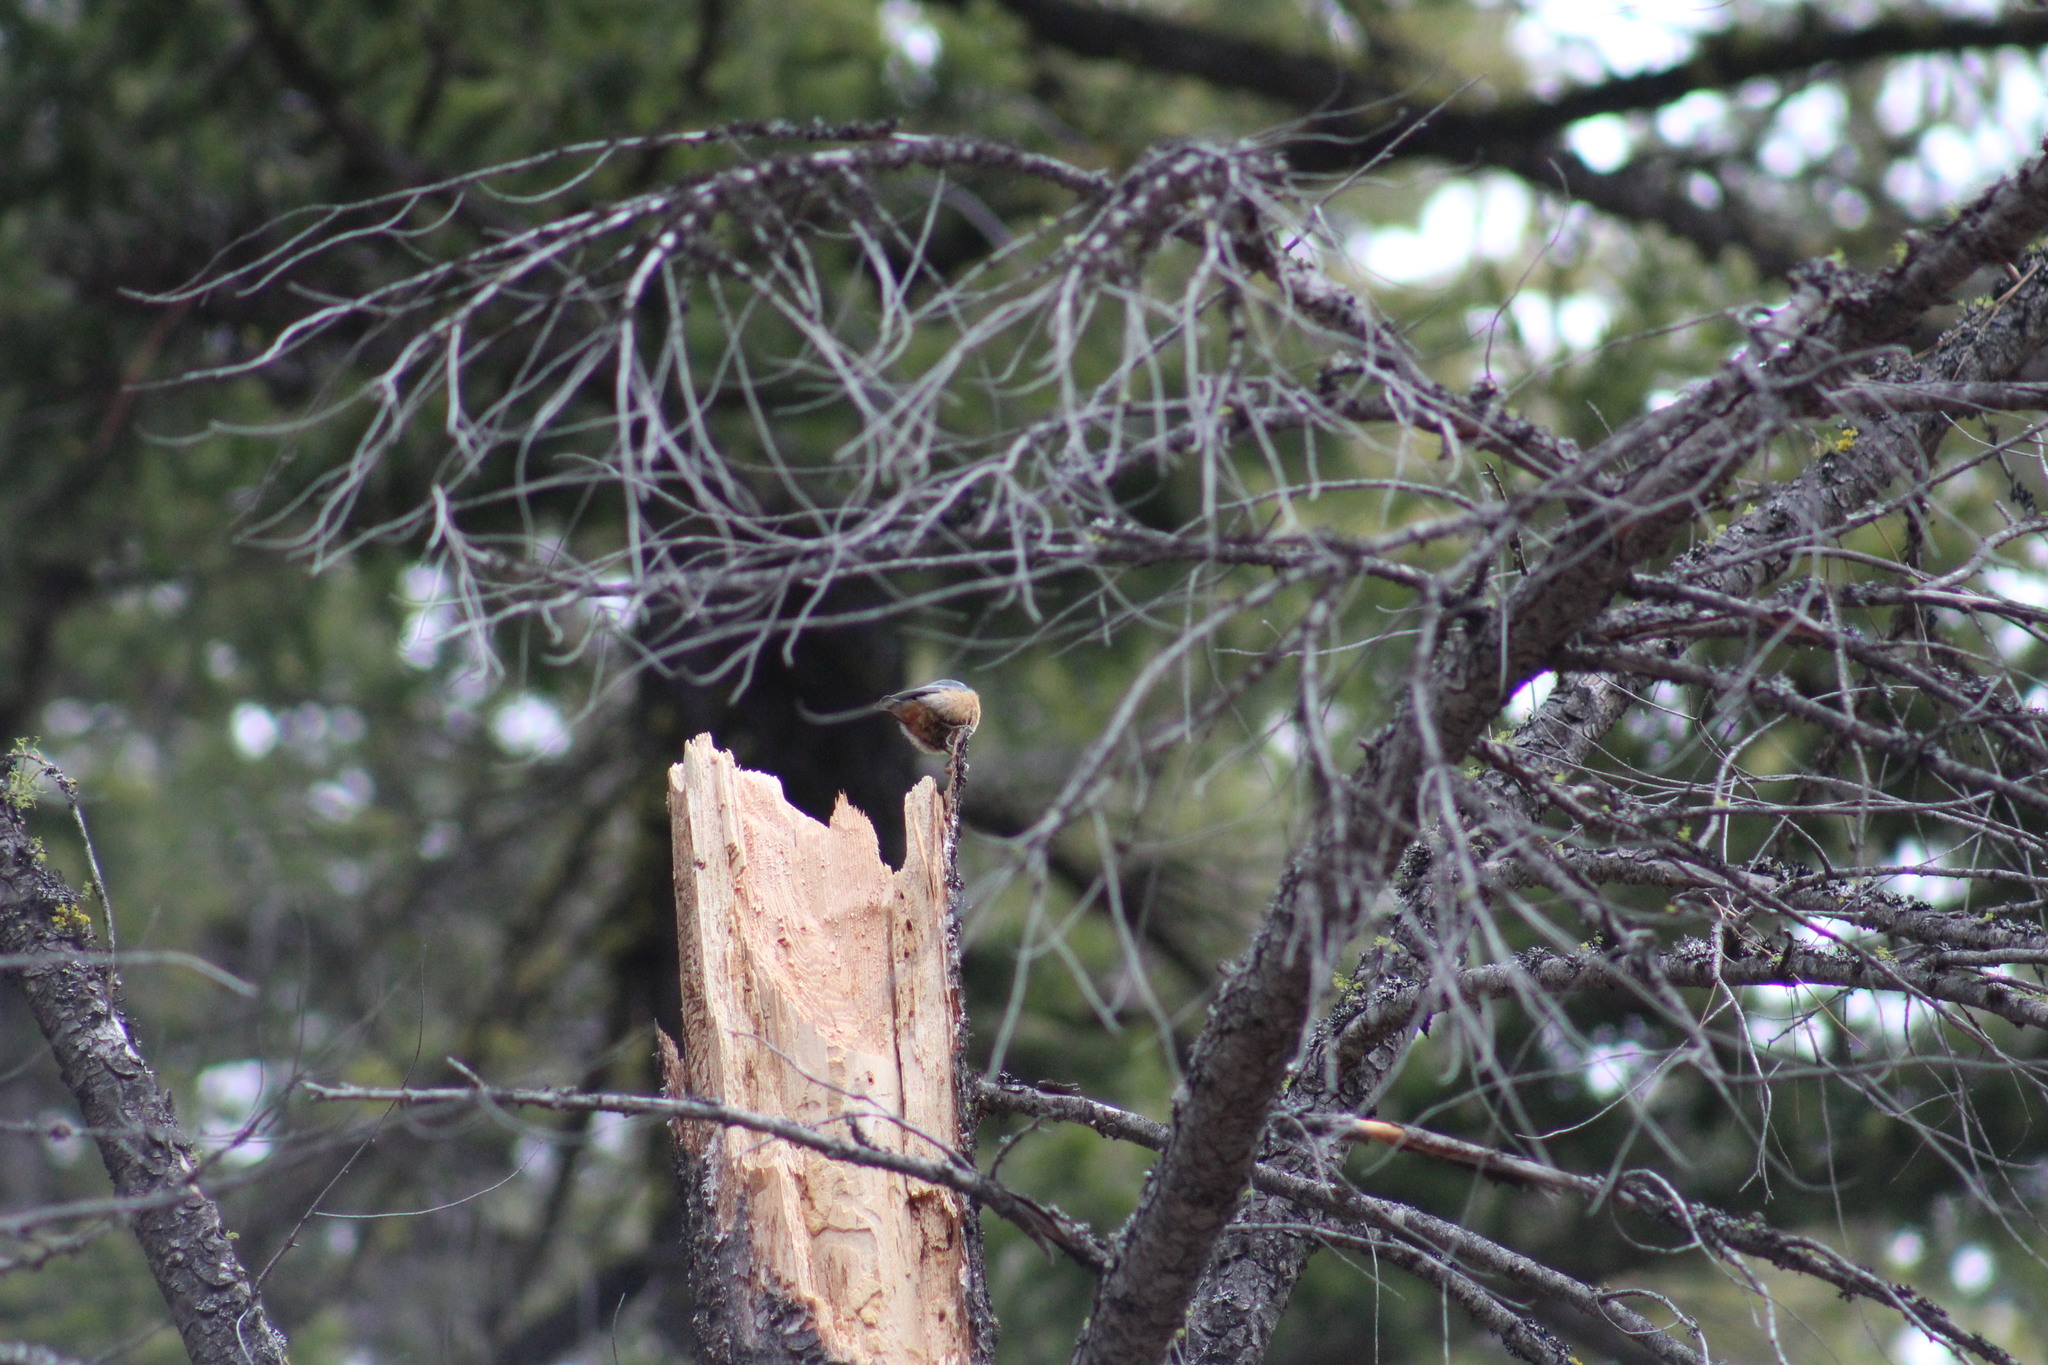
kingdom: Animalia
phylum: Chordata
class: Aves
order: Passeriformes
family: Sittidae
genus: Sitta
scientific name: Sitta canadensis
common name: Red-breasted nuthatch
